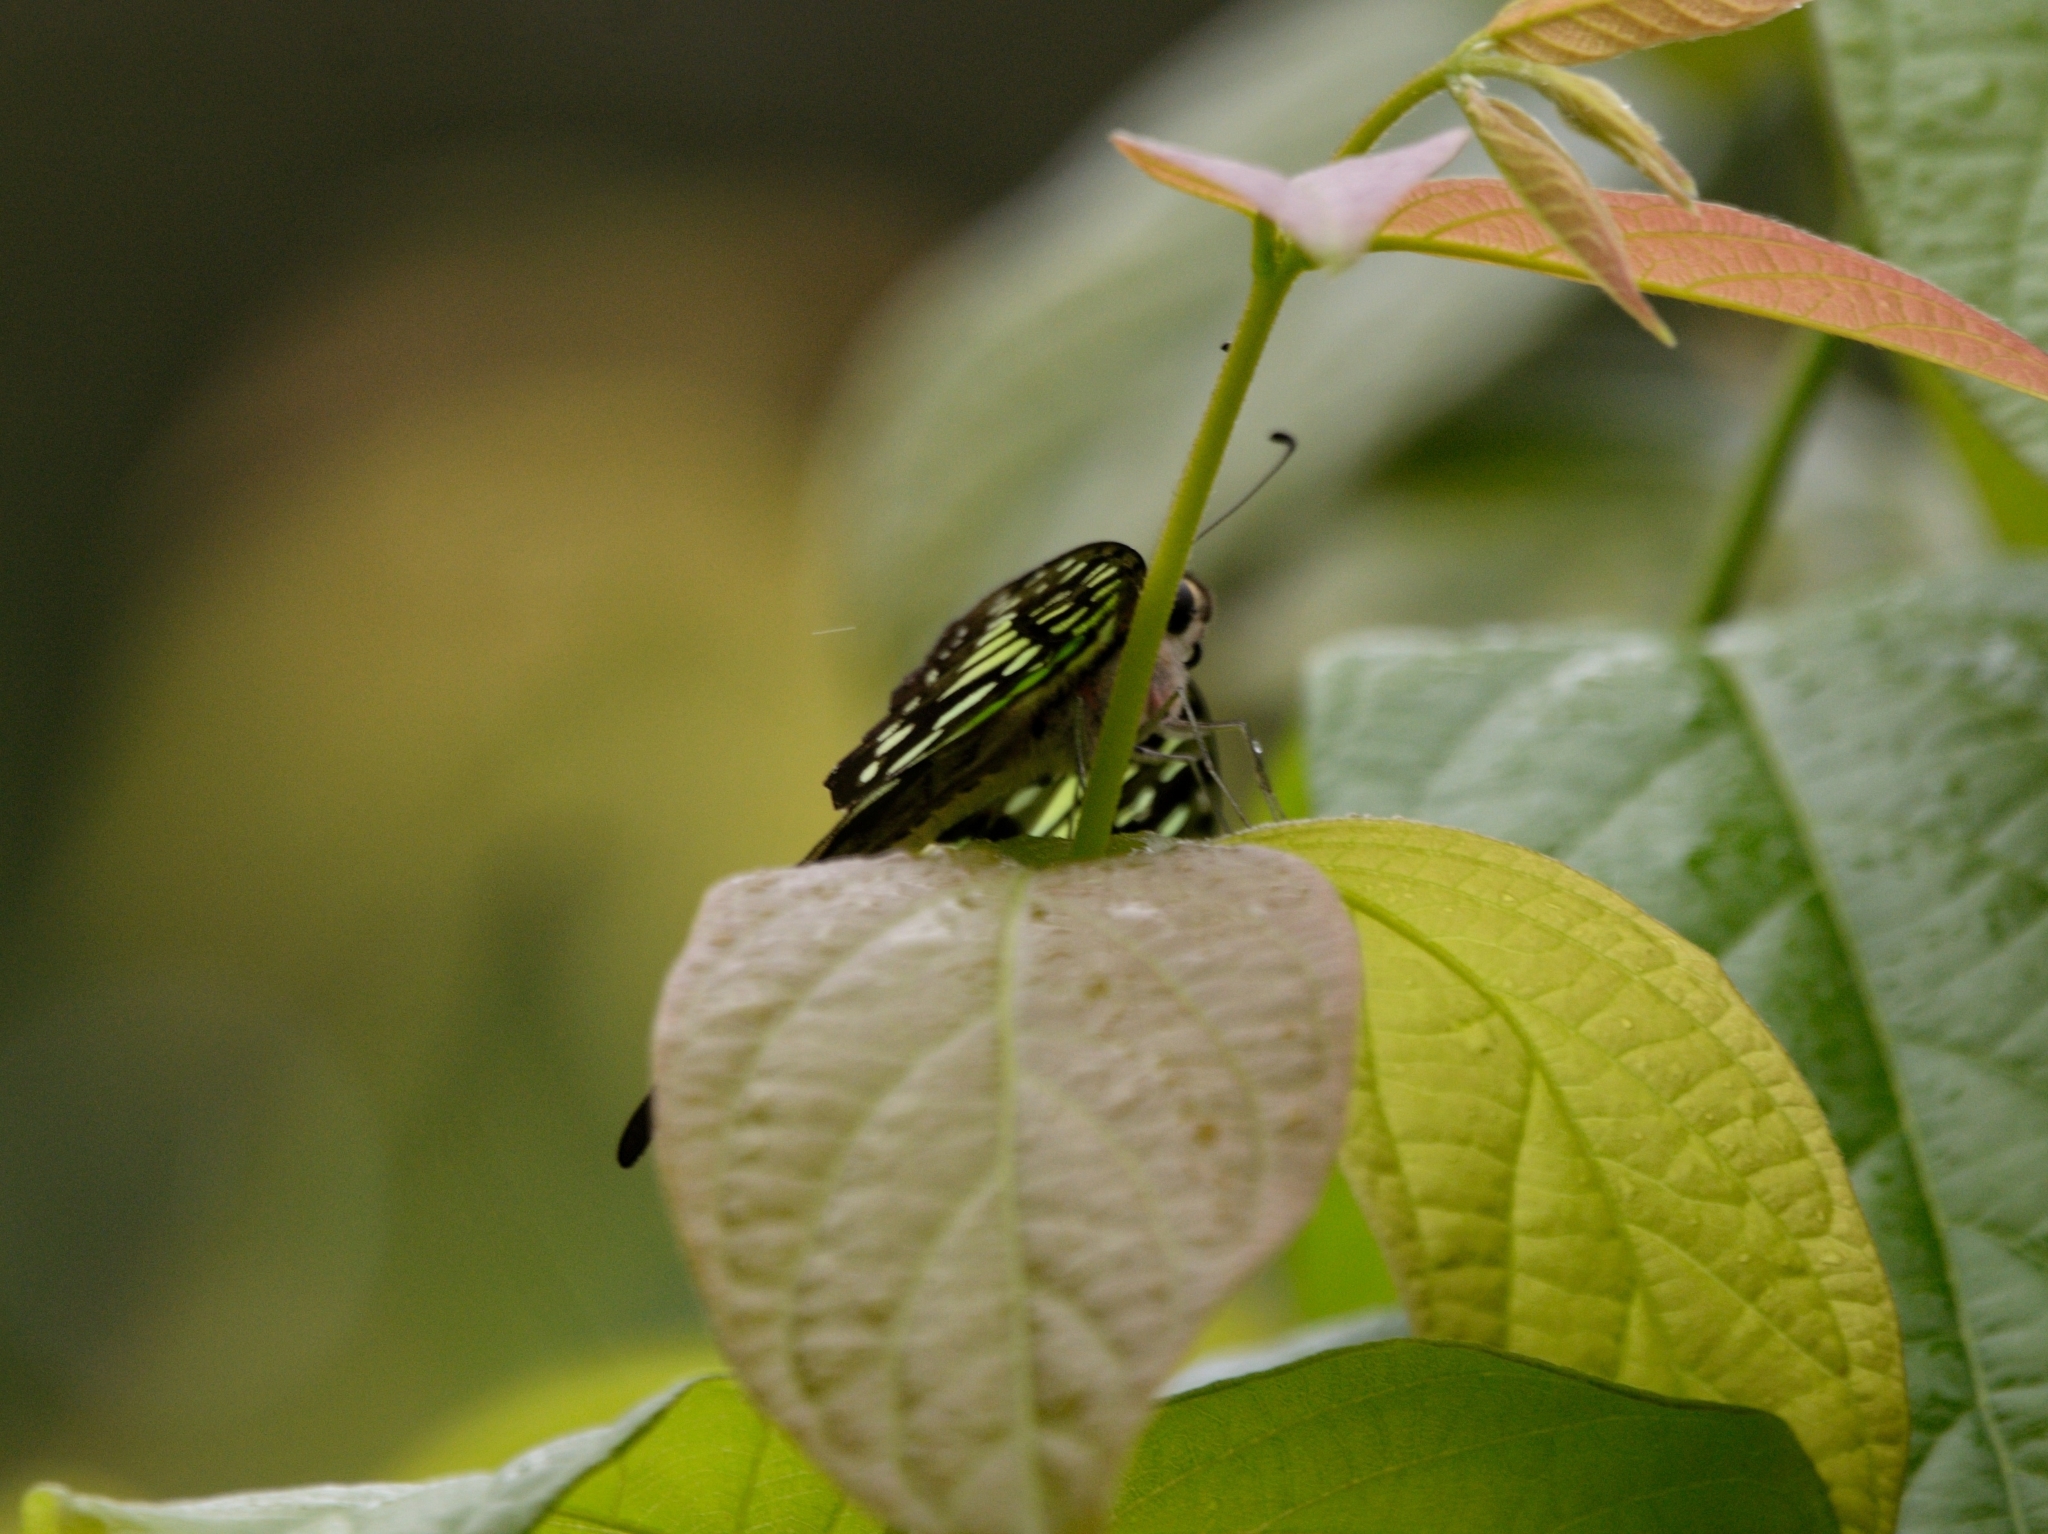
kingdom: Animalia
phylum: Arthropoda
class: Insecta
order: Lepidoptera
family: Papilionidae
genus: Graphium
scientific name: Graphium agamemnon
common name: Tailed jay
